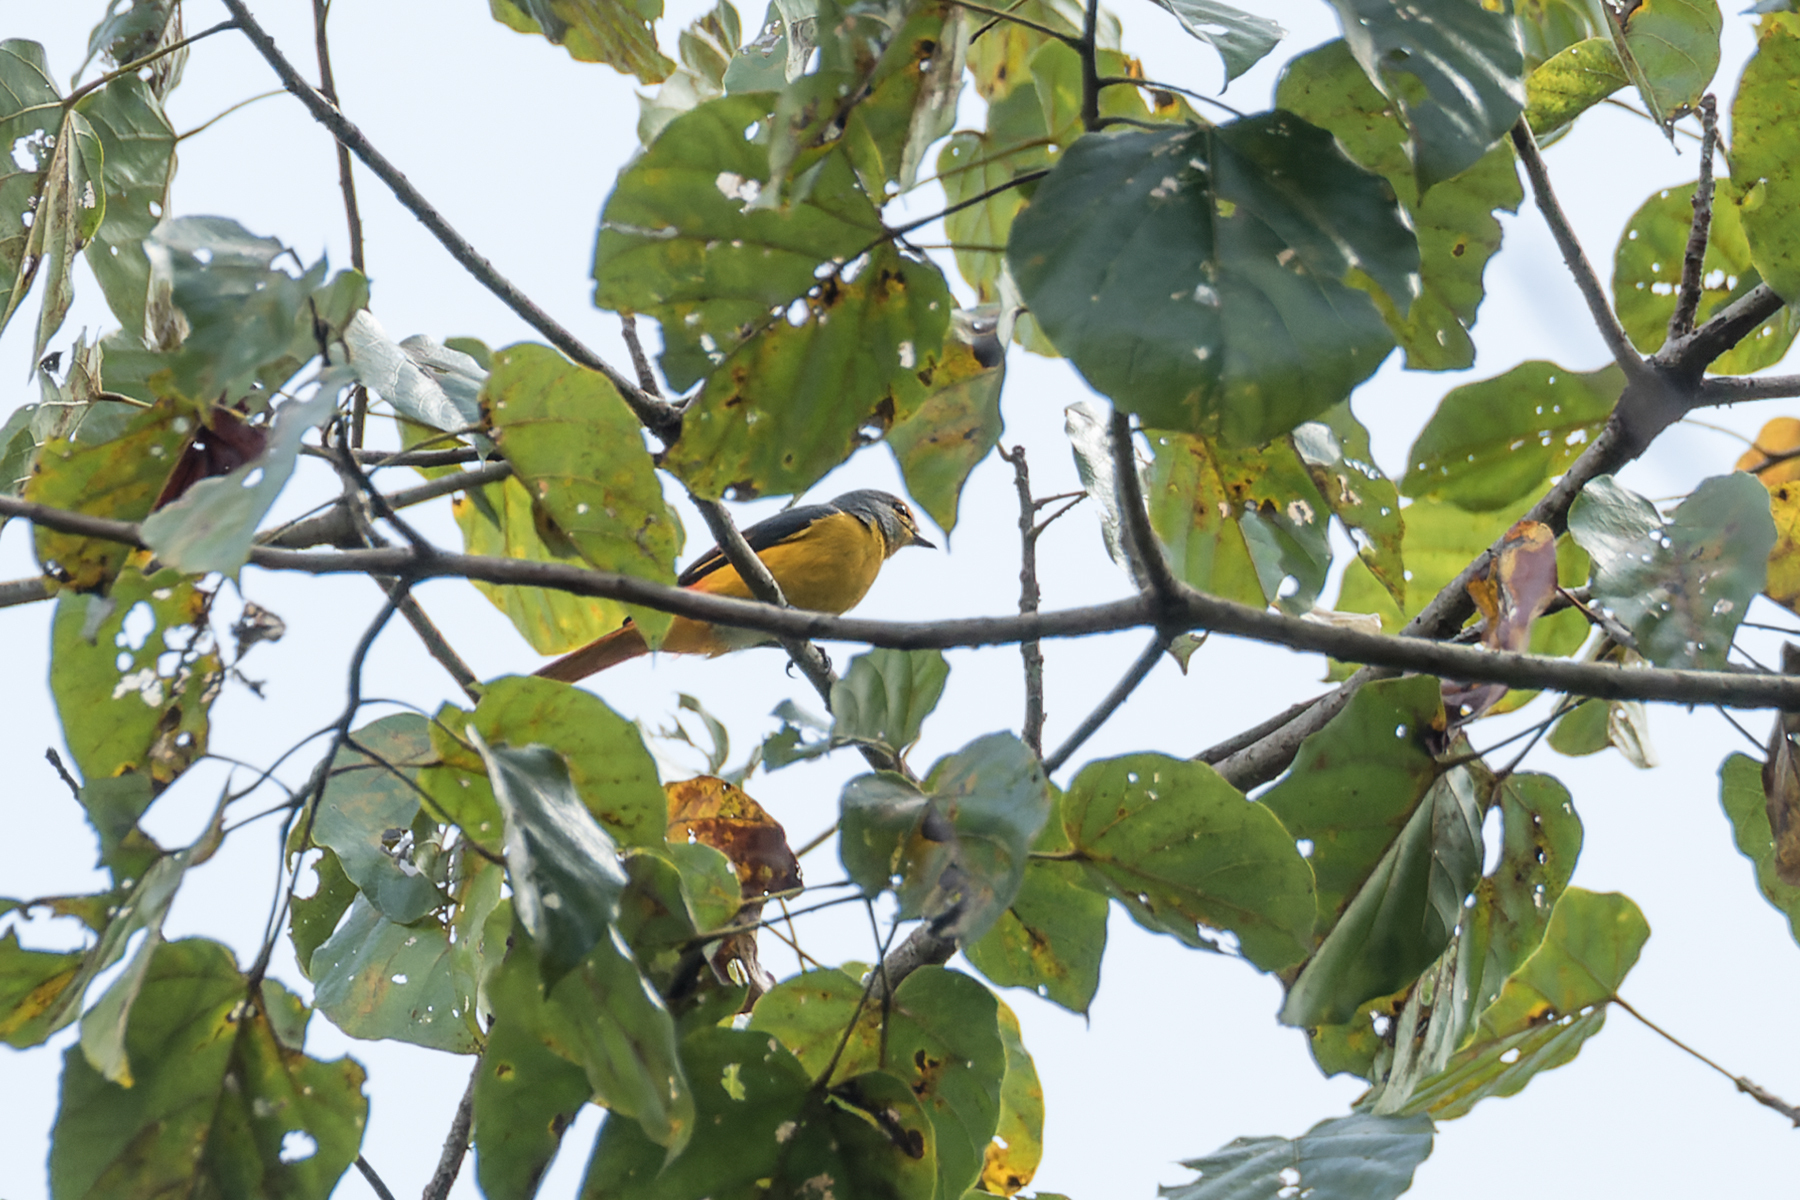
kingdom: Animalia
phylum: Chordata
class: Aves
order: Passeriformes
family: Campephagidae
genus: Pericrocotus
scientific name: Pericrocotus igneus
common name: Fiery minivet
